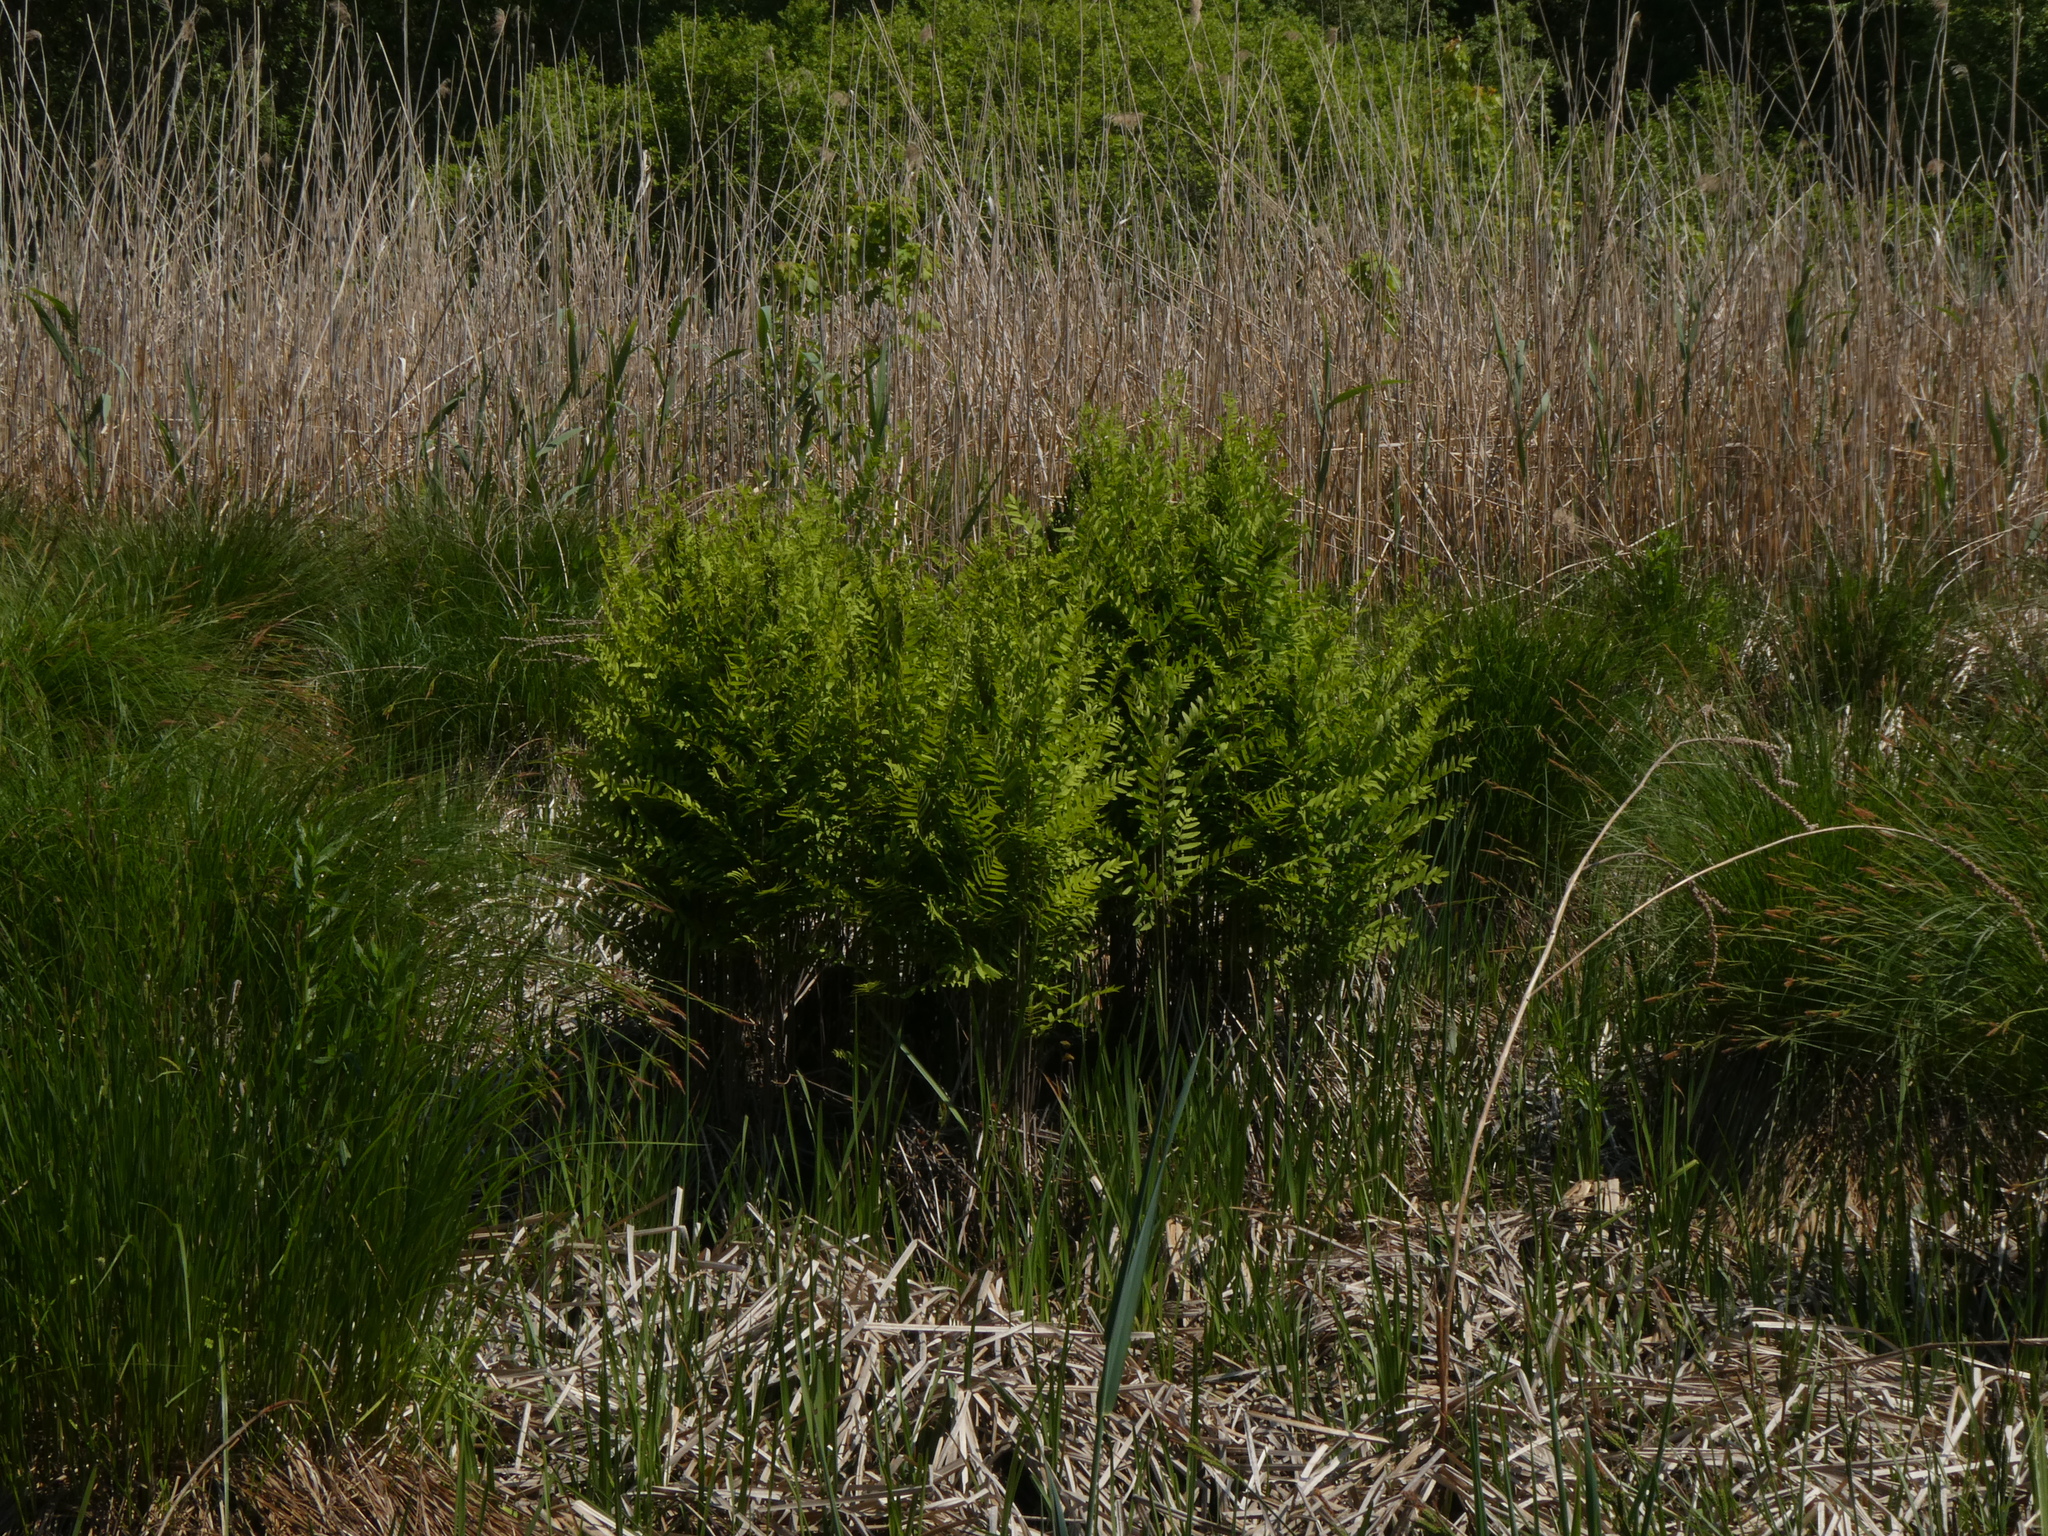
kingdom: Plantae
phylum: Tracheophyta
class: Polypodiopsida
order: Osmundales
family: Osmundaceae
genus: Osmunda
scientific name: Osmunda spectabilis
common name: American royal fern
